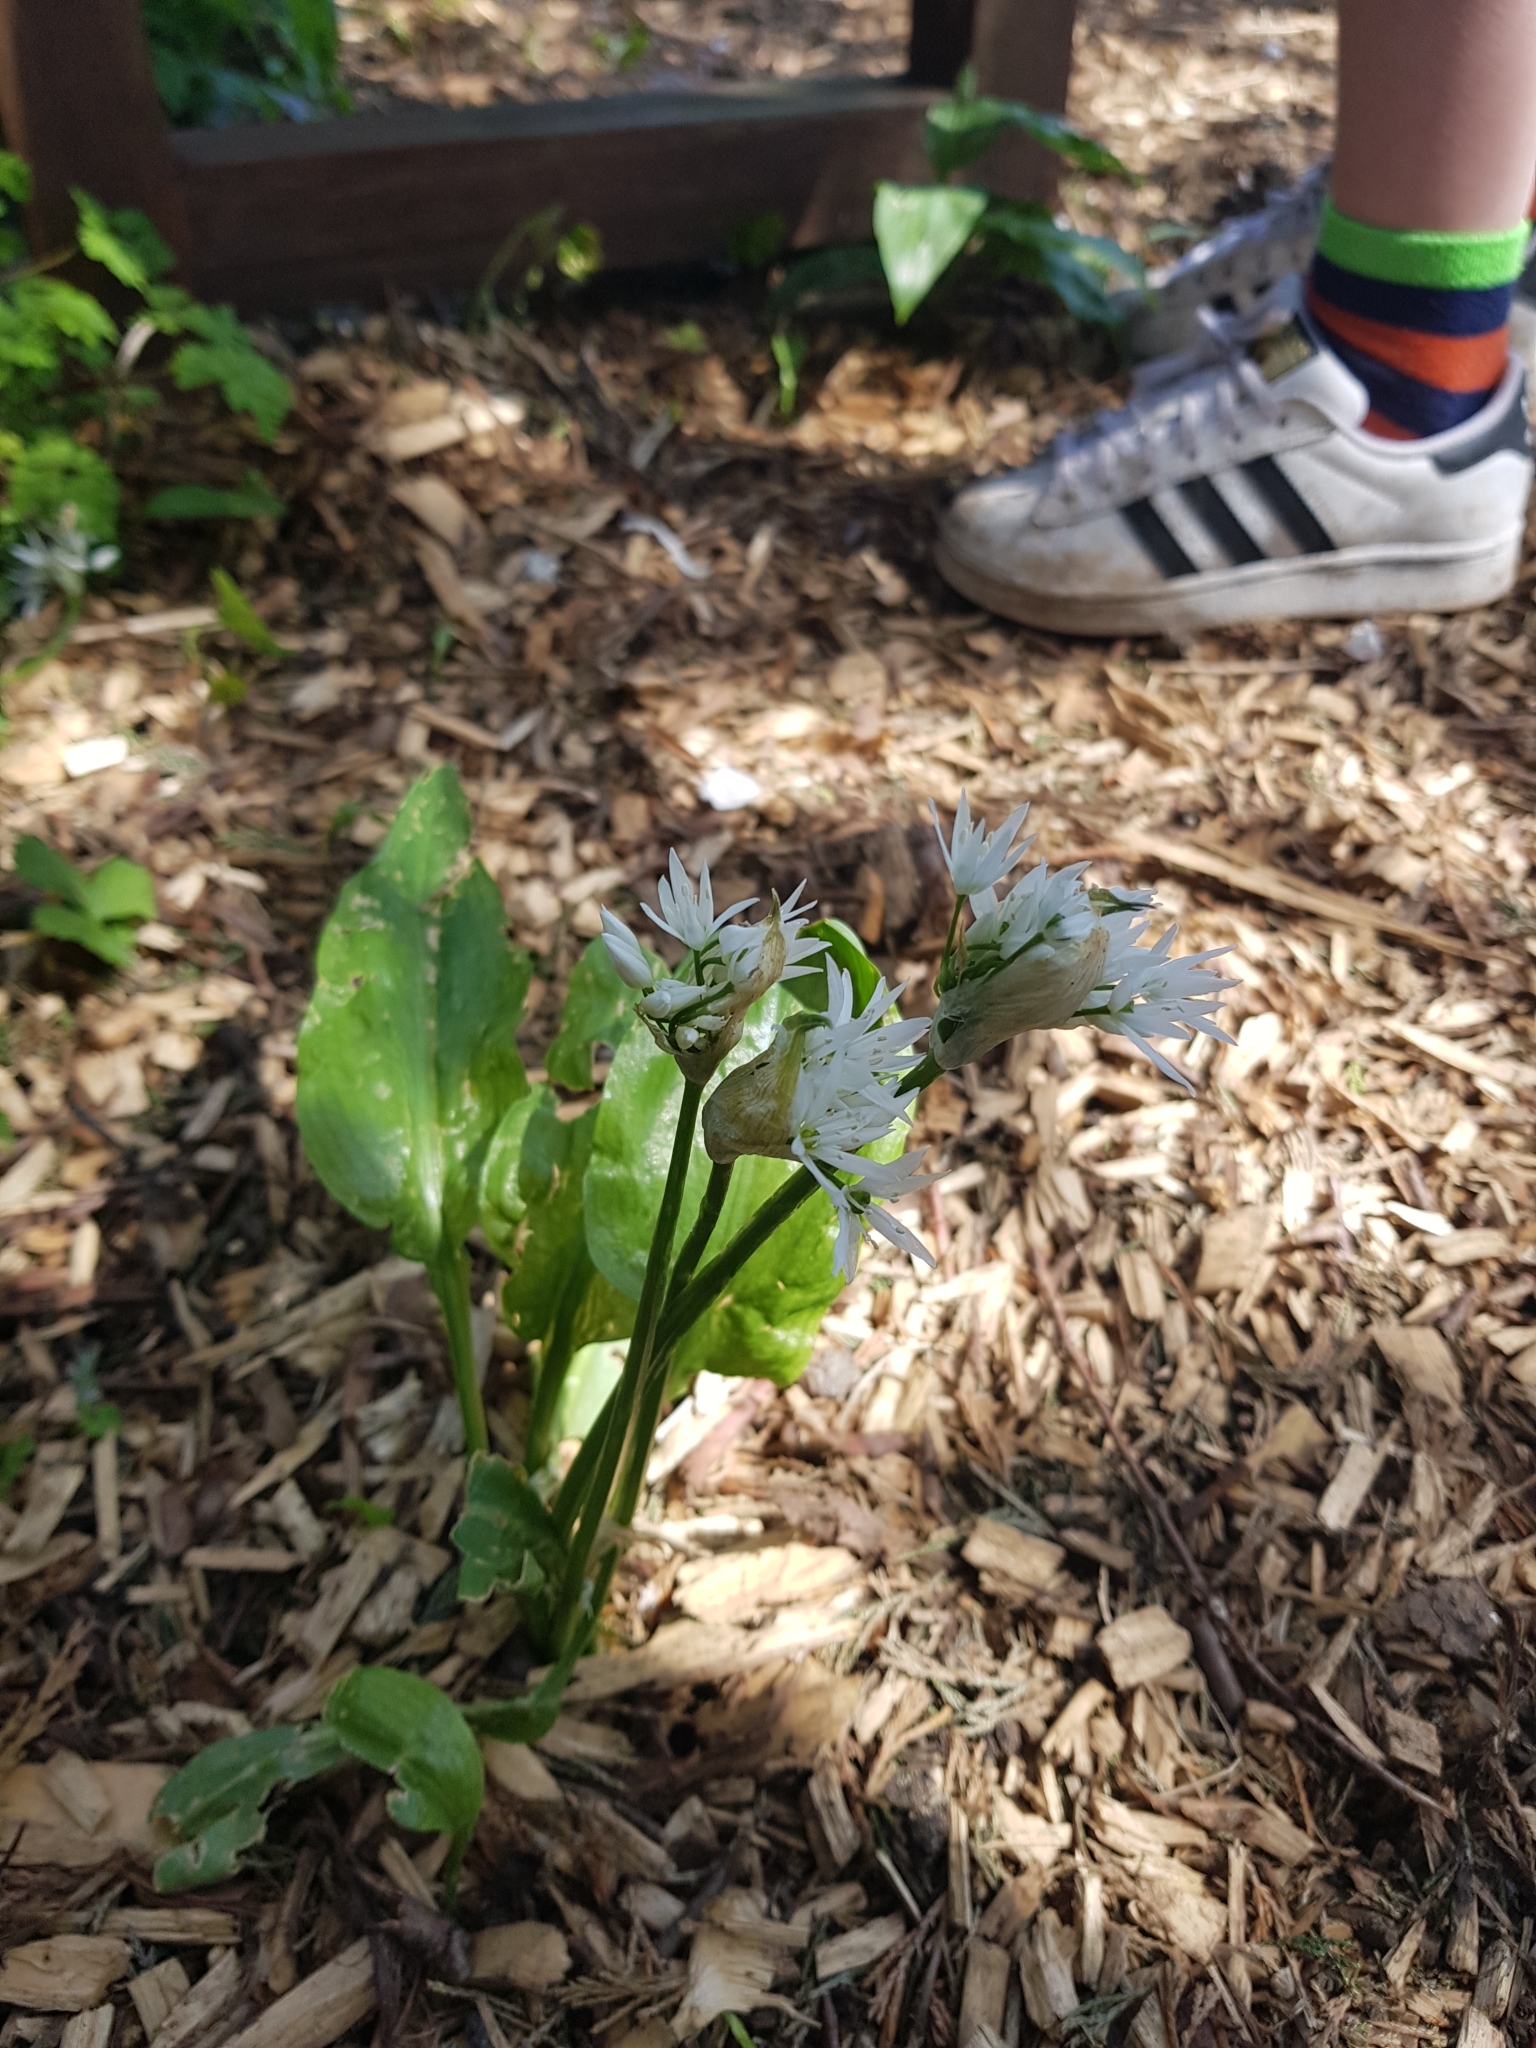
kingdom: Plantae
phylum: Tracheophyta
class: Liliopsida
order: Asparagales
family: Amaryllidaceae
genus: Allium
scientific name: Allium ursinum
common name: Ramsons
